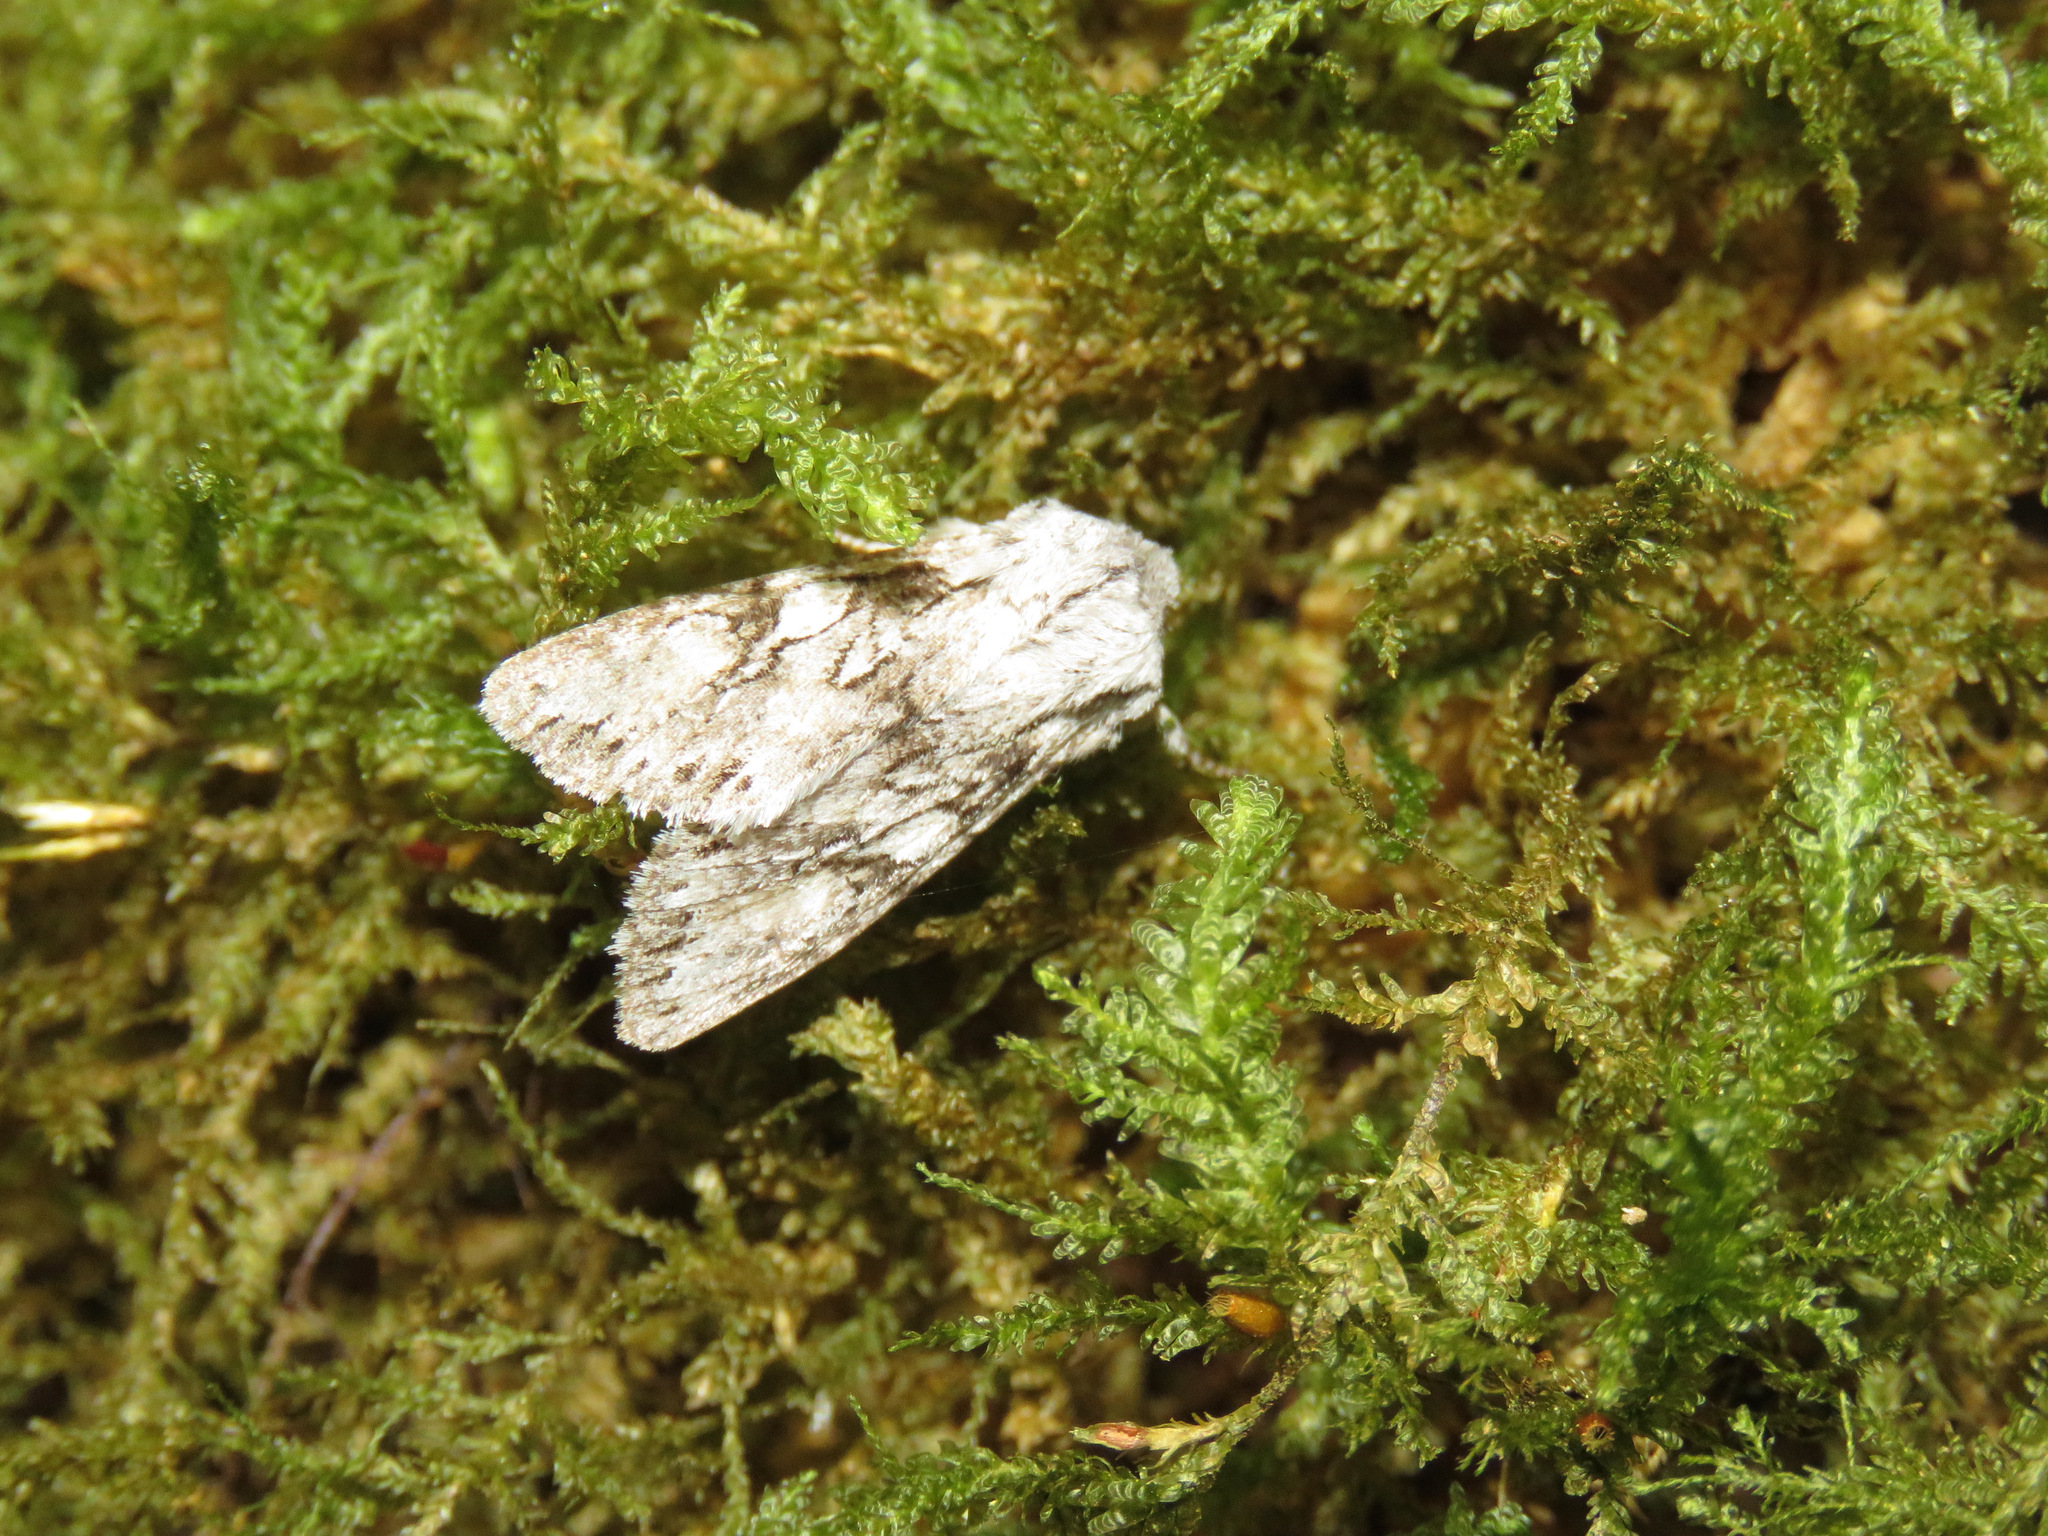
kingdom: Animalia
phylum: Arthropoda
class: Insecta
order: Lepidoptera
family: Noctuidae
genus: Egira
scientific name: Egira simplex
